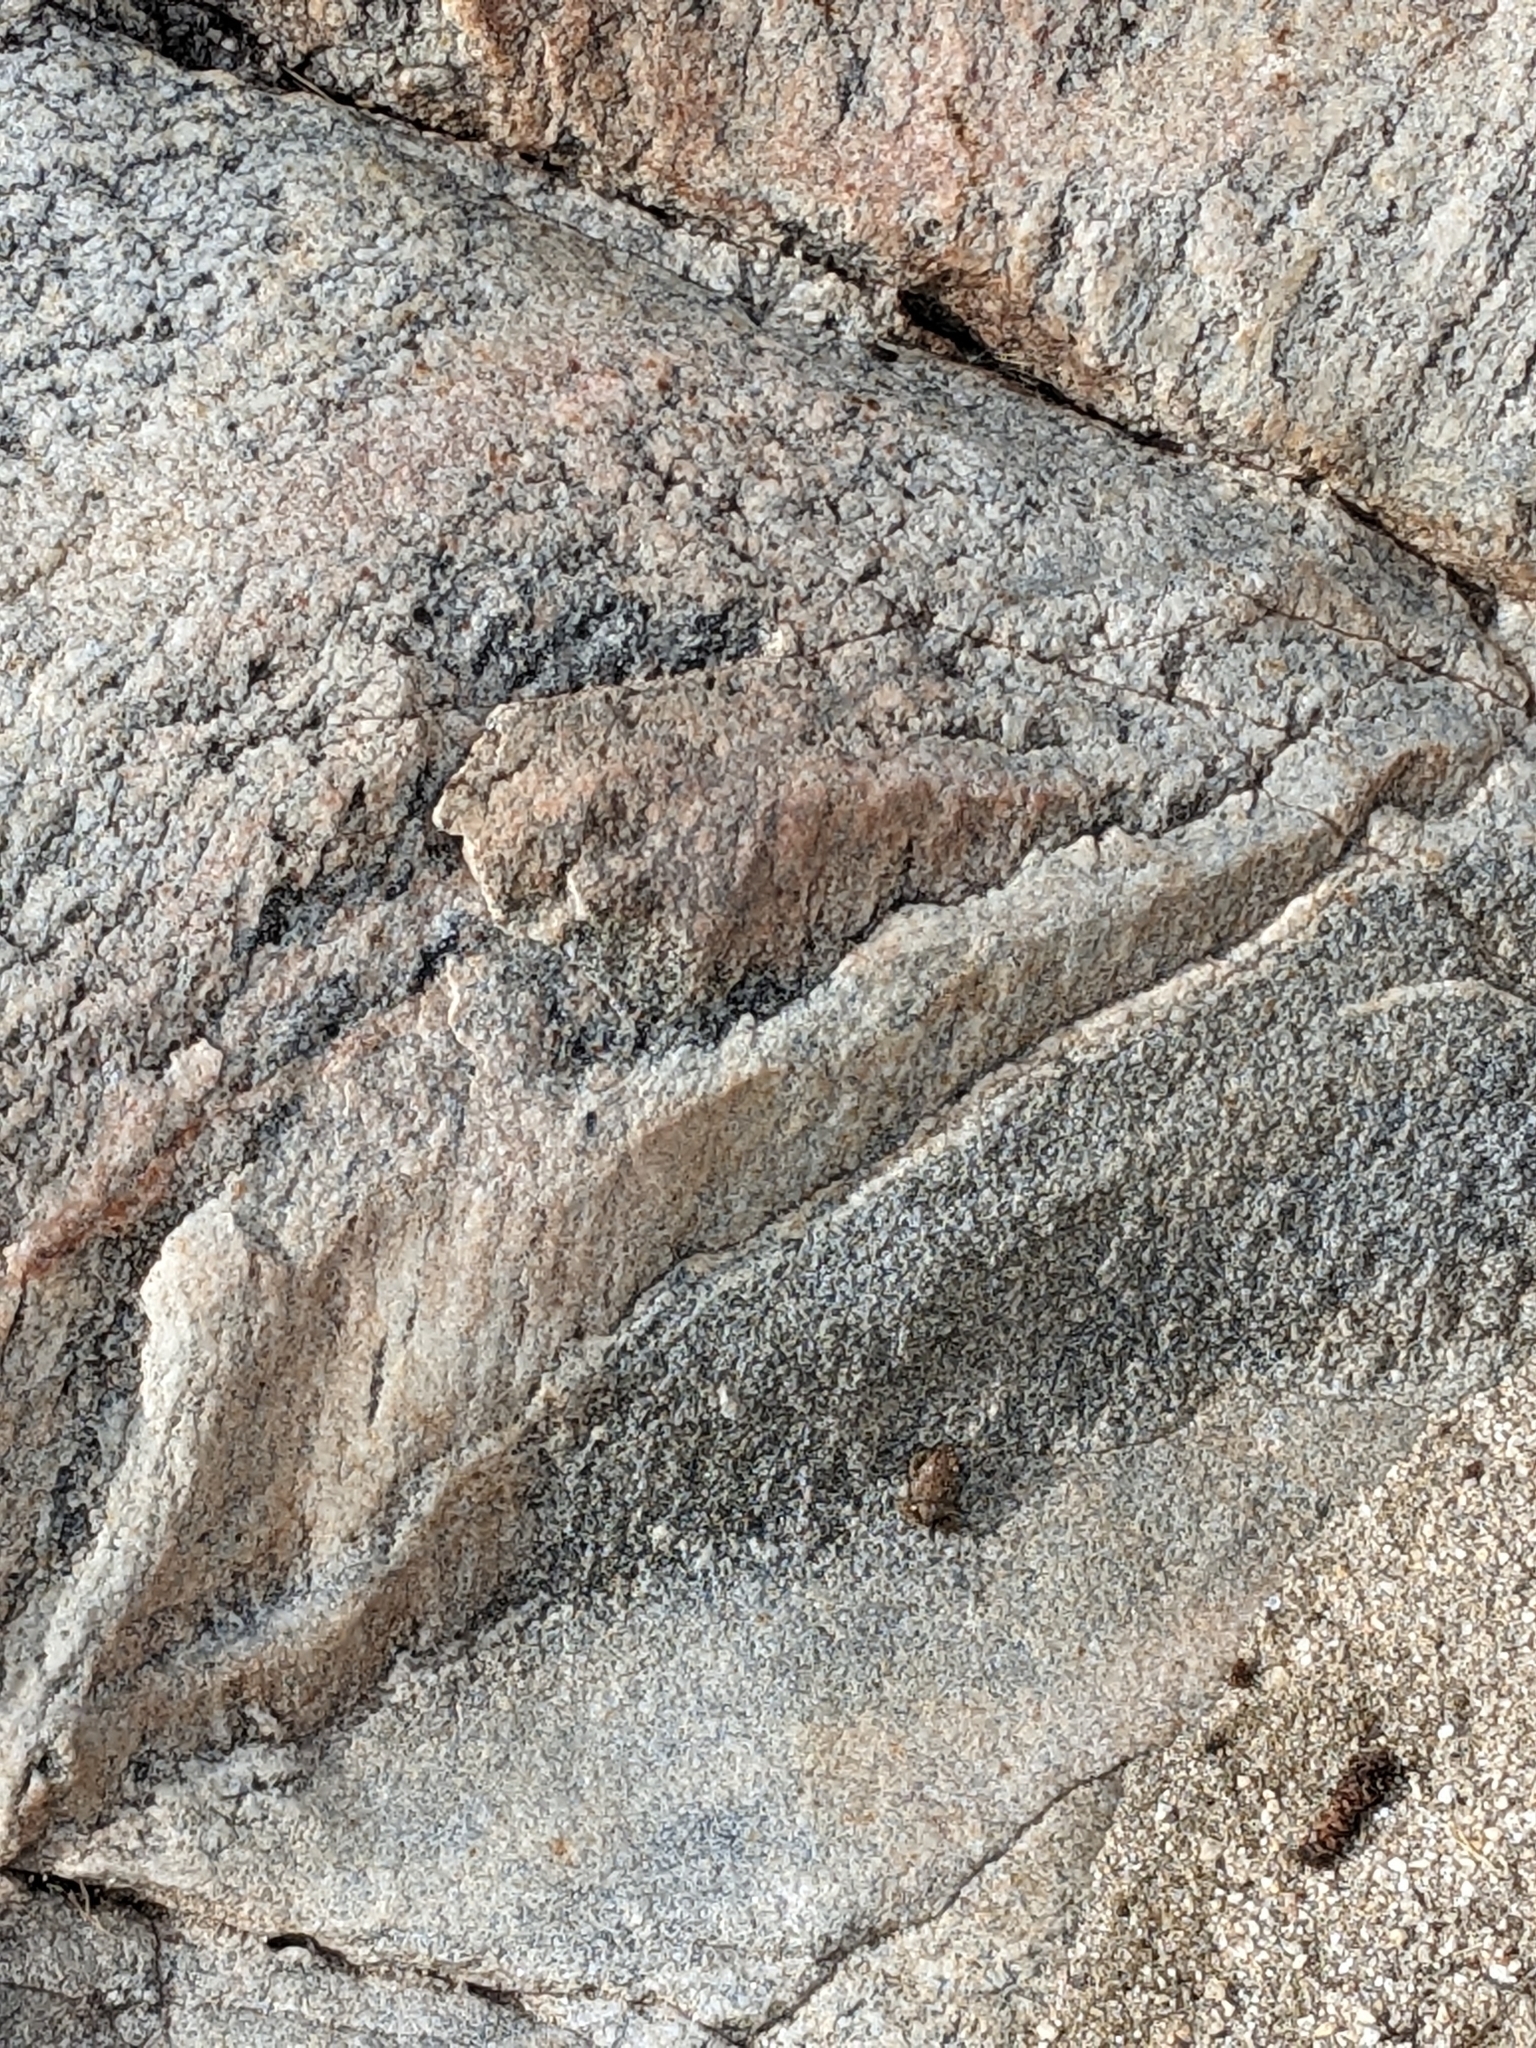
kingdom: Animalia
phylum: Chordata
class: Amphibia
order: Anura
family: Bufonidae
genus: Anaxyrus
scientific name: Anaxyrus punctatus
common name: Red-spotted toad
